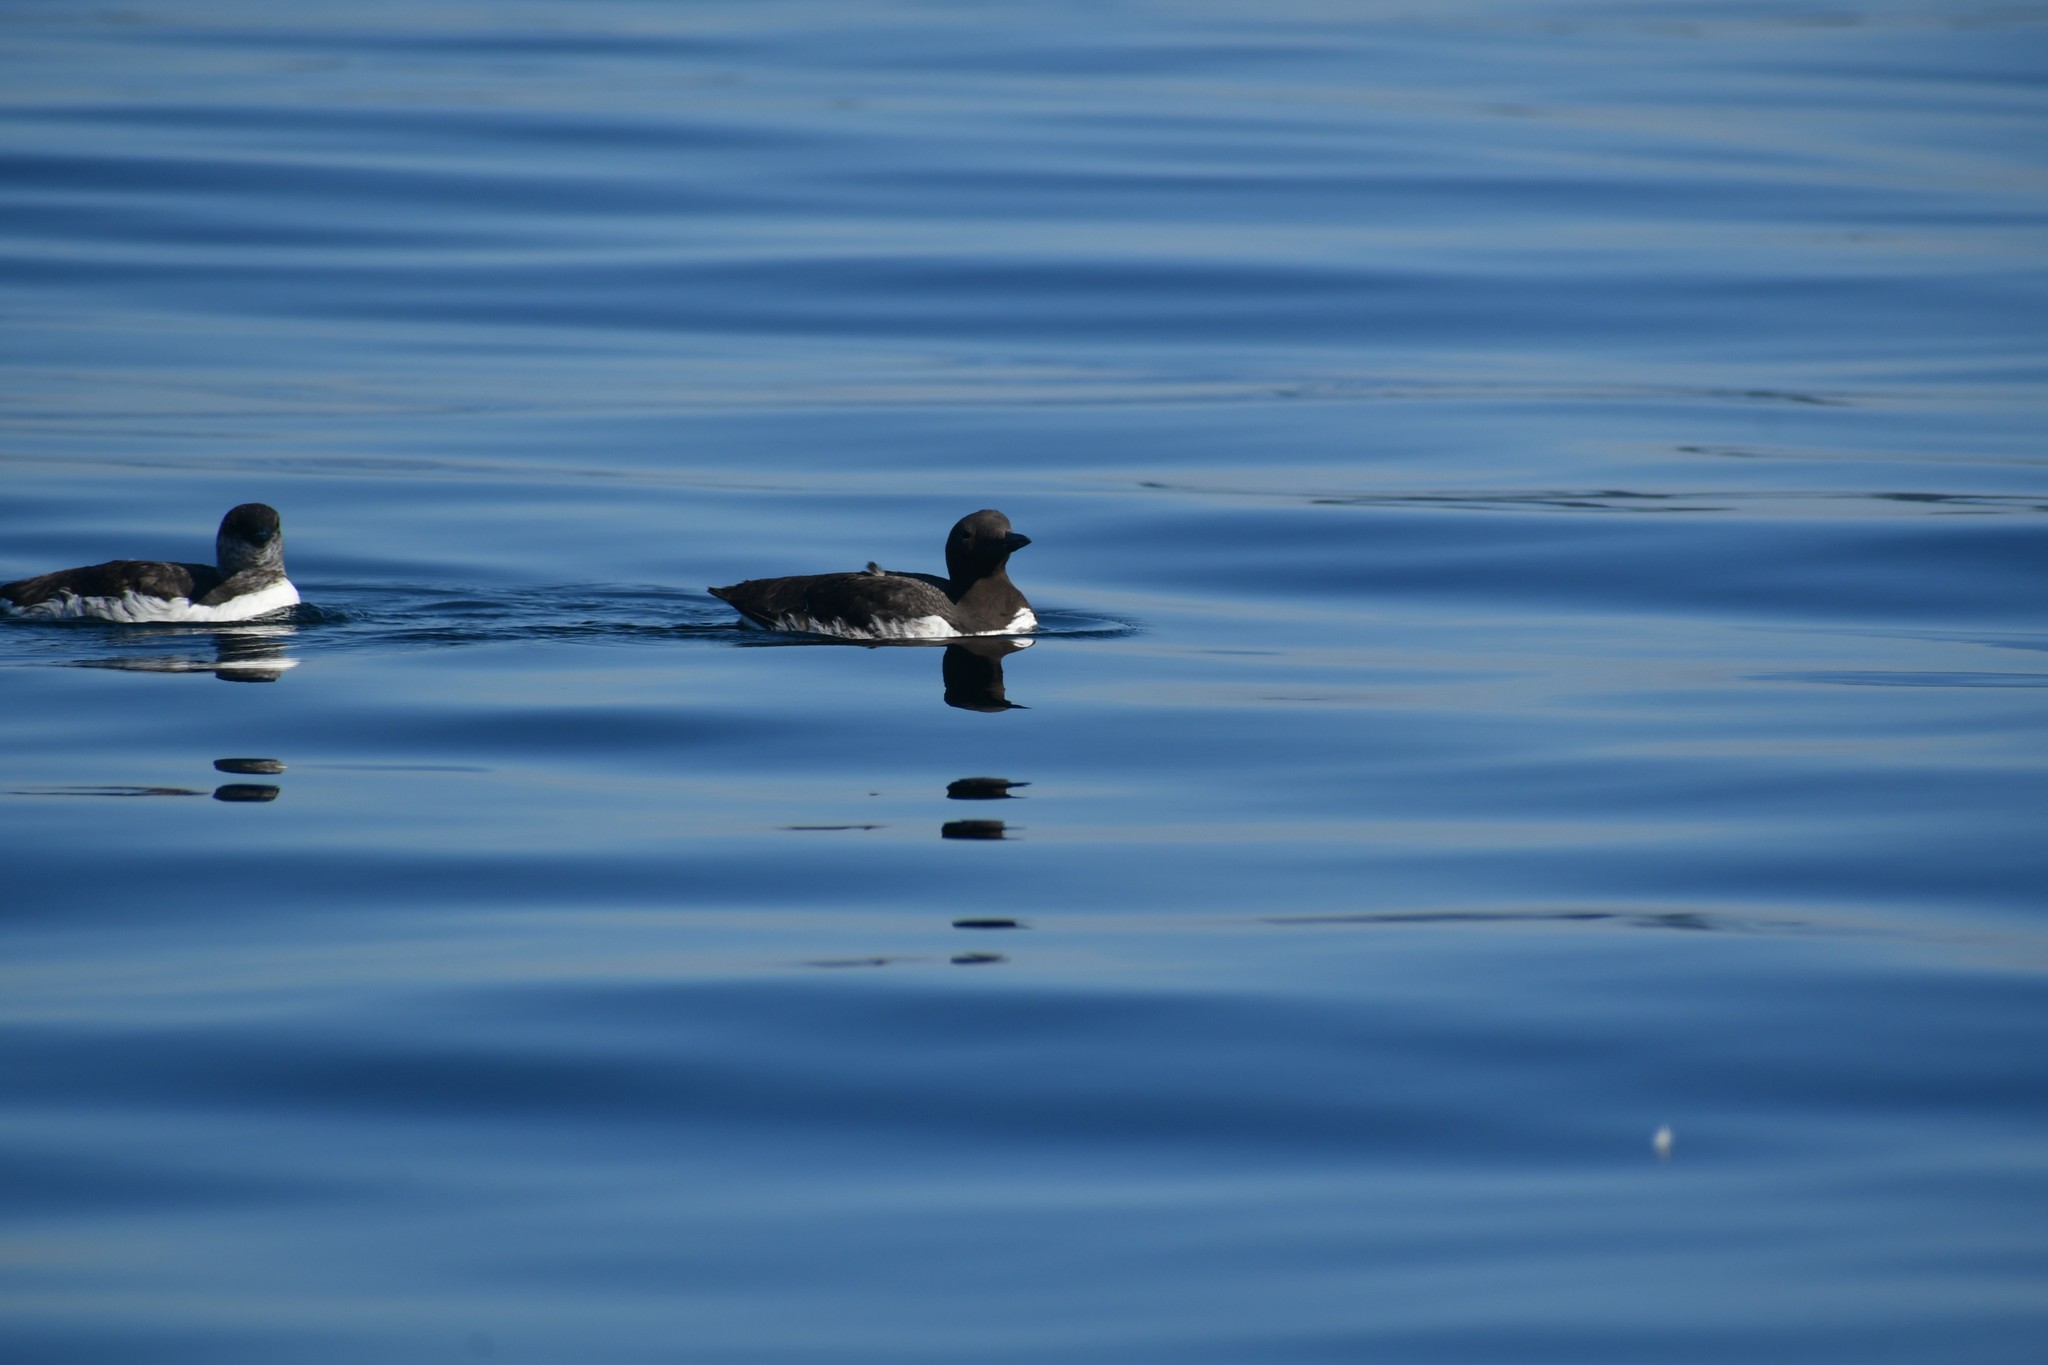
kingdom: Animalia
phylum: Chordata
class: Aves
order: Charadriiformes
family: Alcidae
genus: Uria
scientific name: Uria aalge
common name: Common murre
